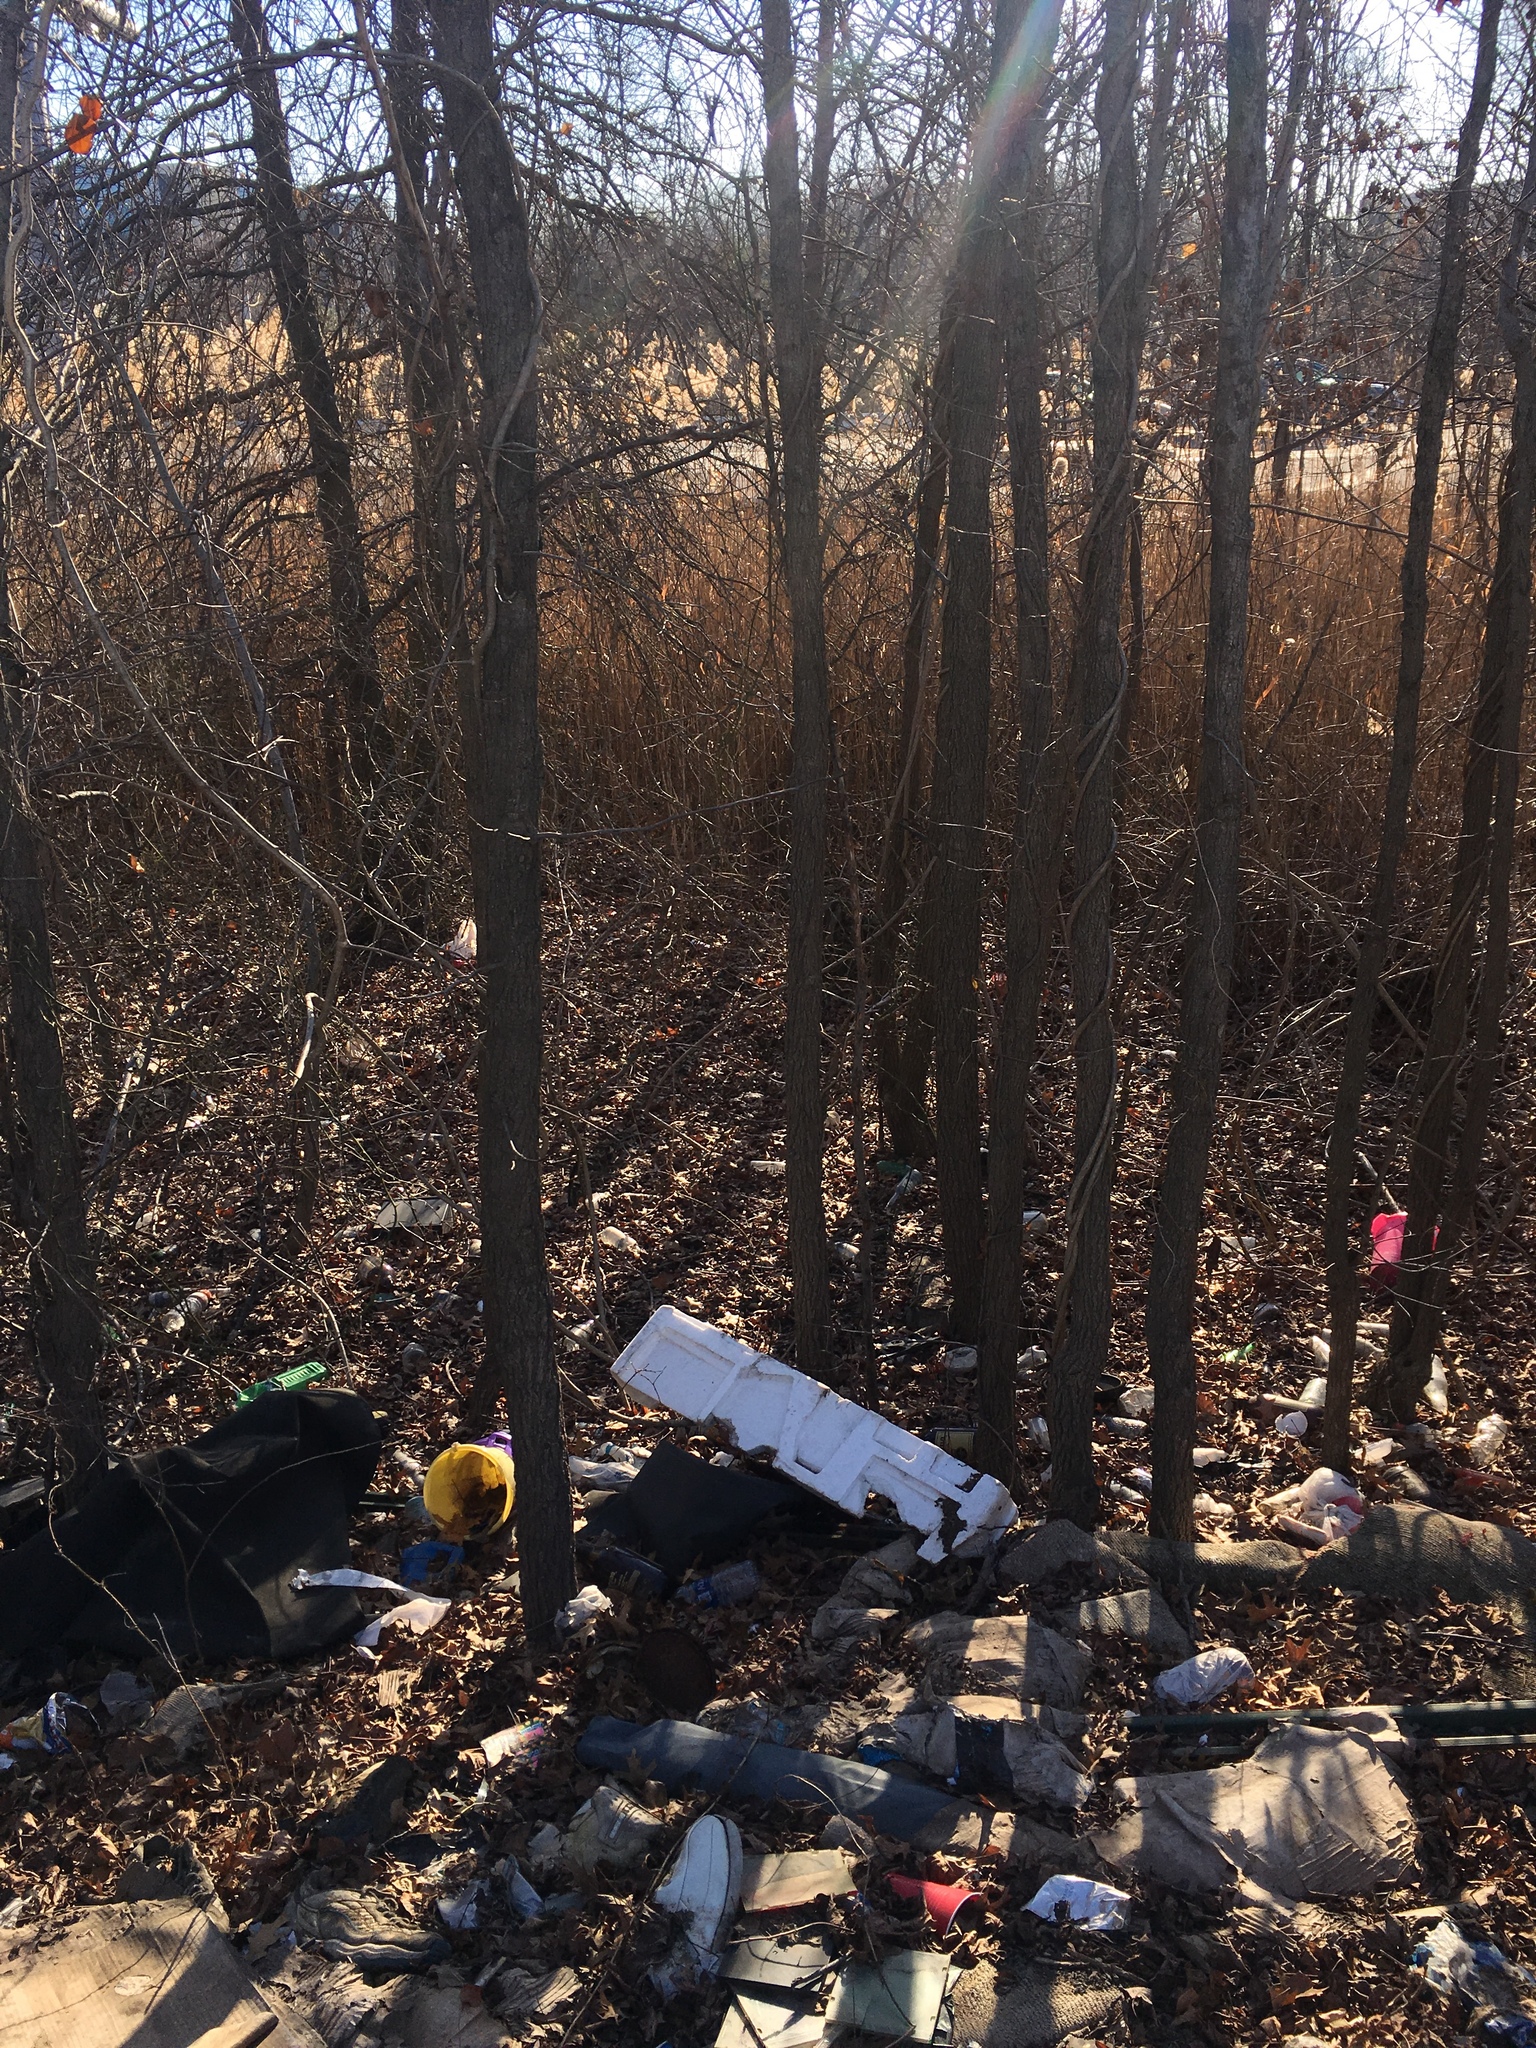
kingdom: Plantae
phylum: Tracheophyta
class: Magnoliopsida
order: Saxifragales
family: Altingiaceae
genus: Liquidambar
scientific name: Liquidambar styraciflua
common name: Sweet gum
